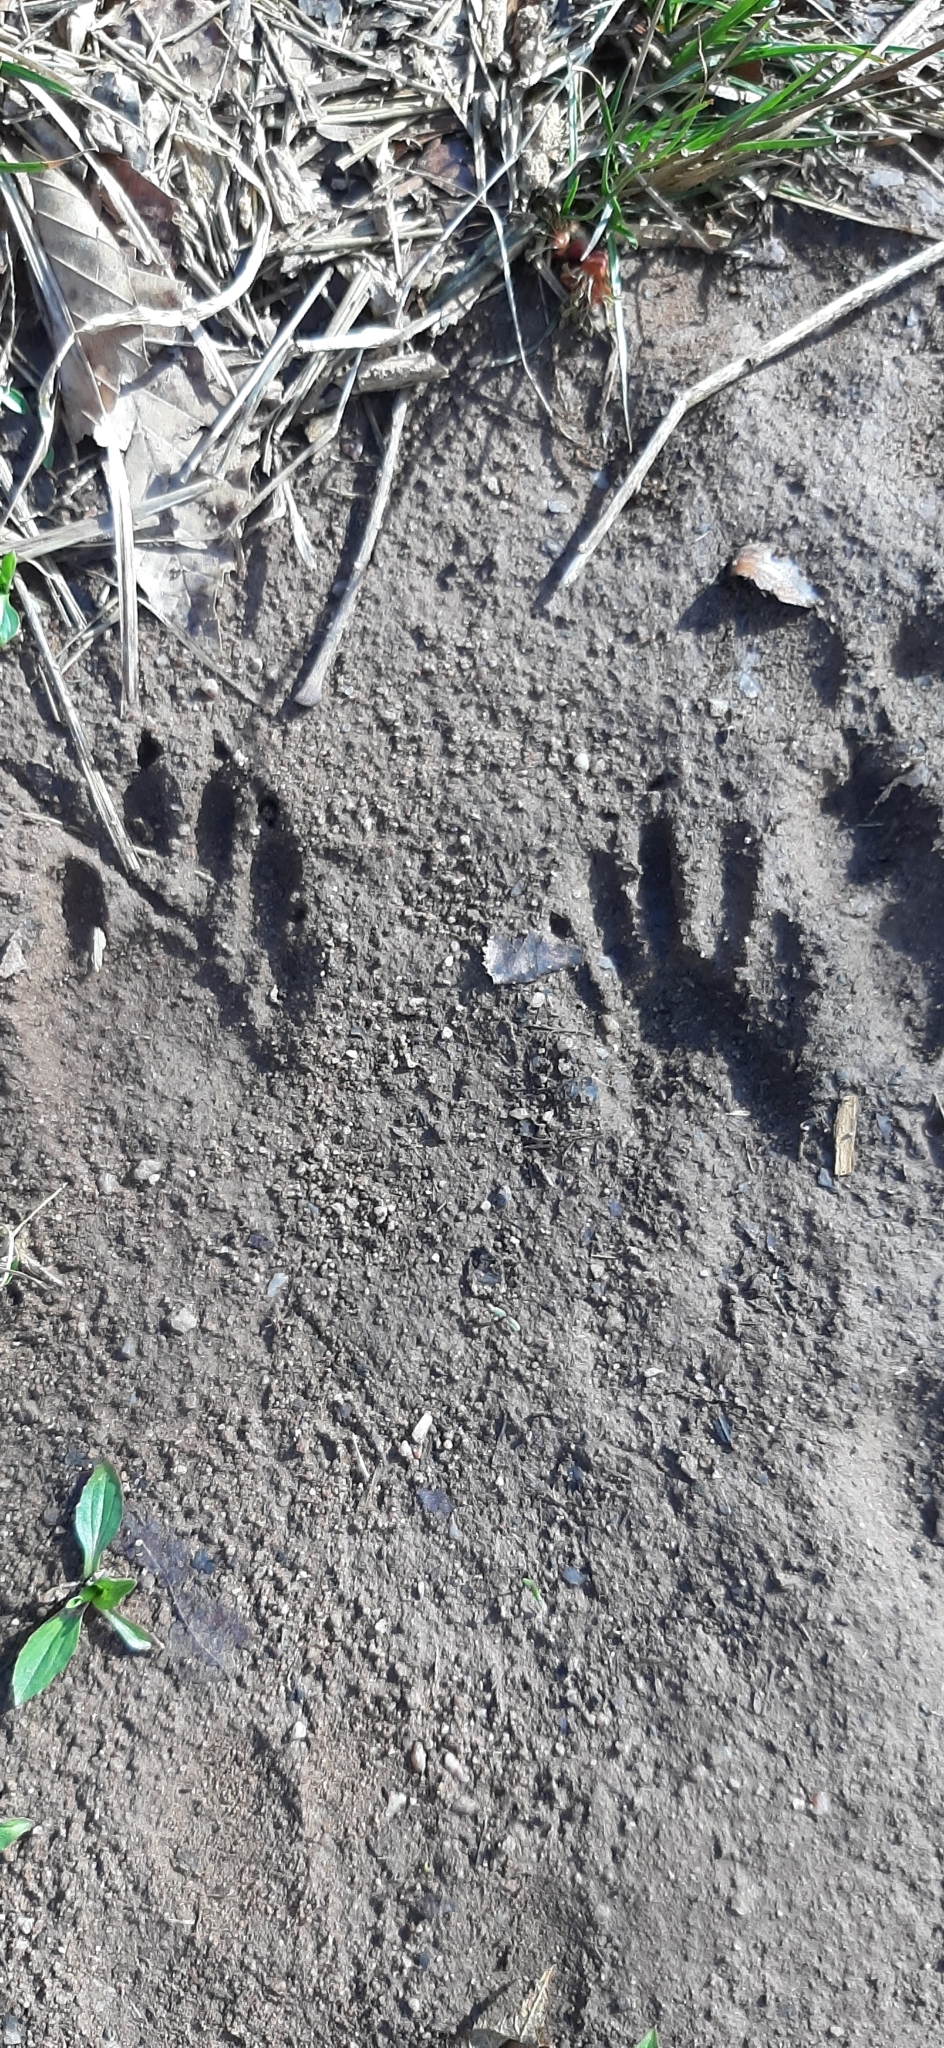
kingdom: Animalia
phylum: Chordata
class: Mammalia
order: Carnivora
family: Procyonidae
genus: Procyon
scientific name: Procyon lotor
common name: Raccoon
